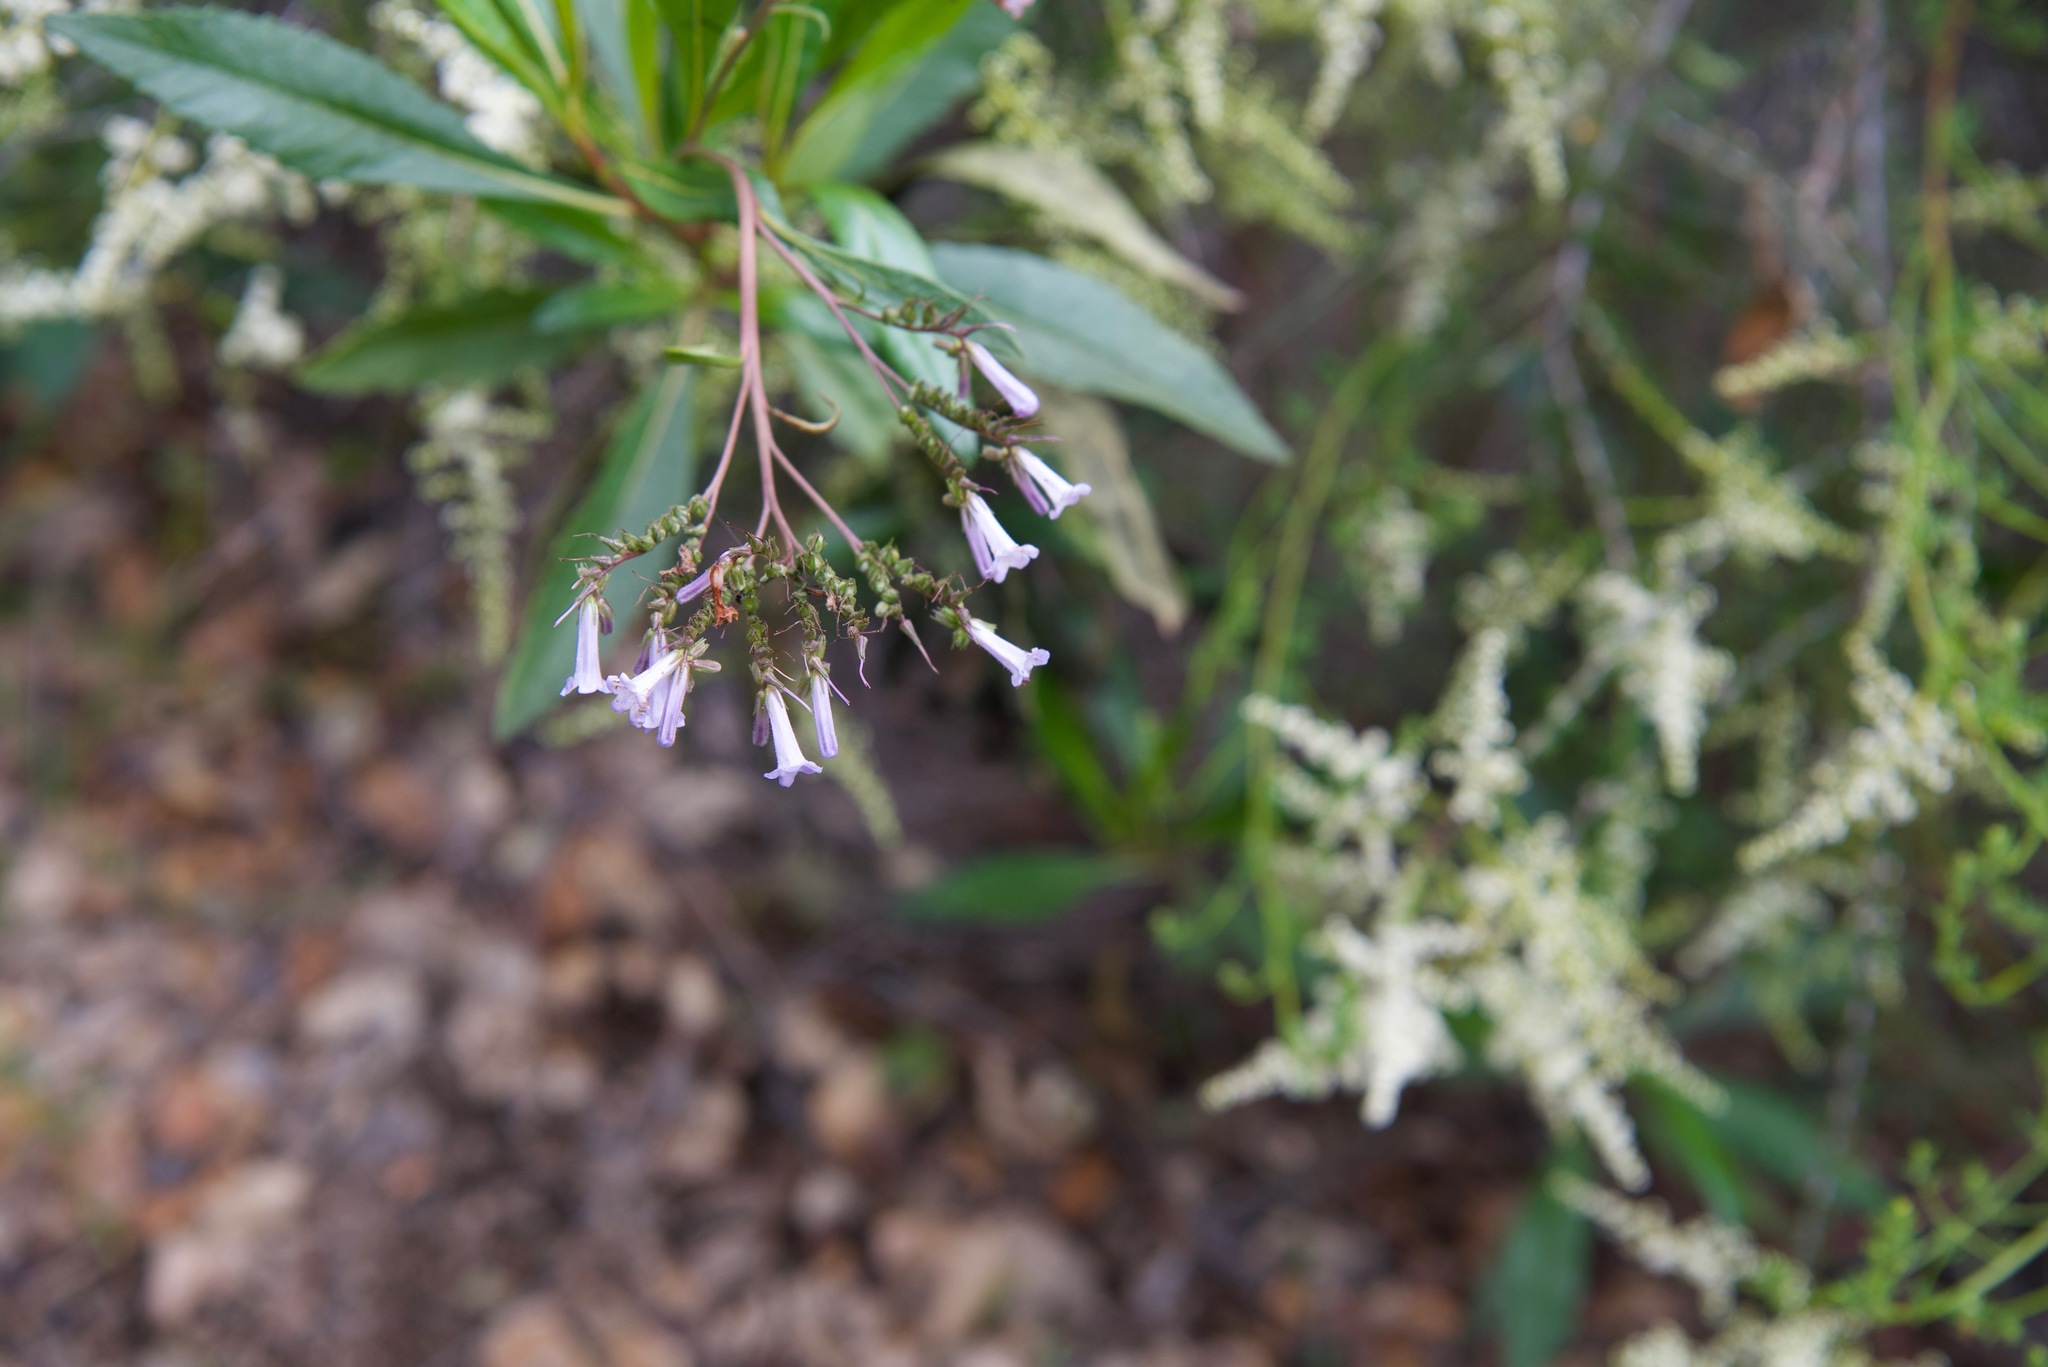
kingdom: Plantae
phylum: Tracheophyta
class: Magnoliopsida
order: Boraginales
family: Namaceae
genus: Eriodictyon
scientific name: Eriodictyon californicum
